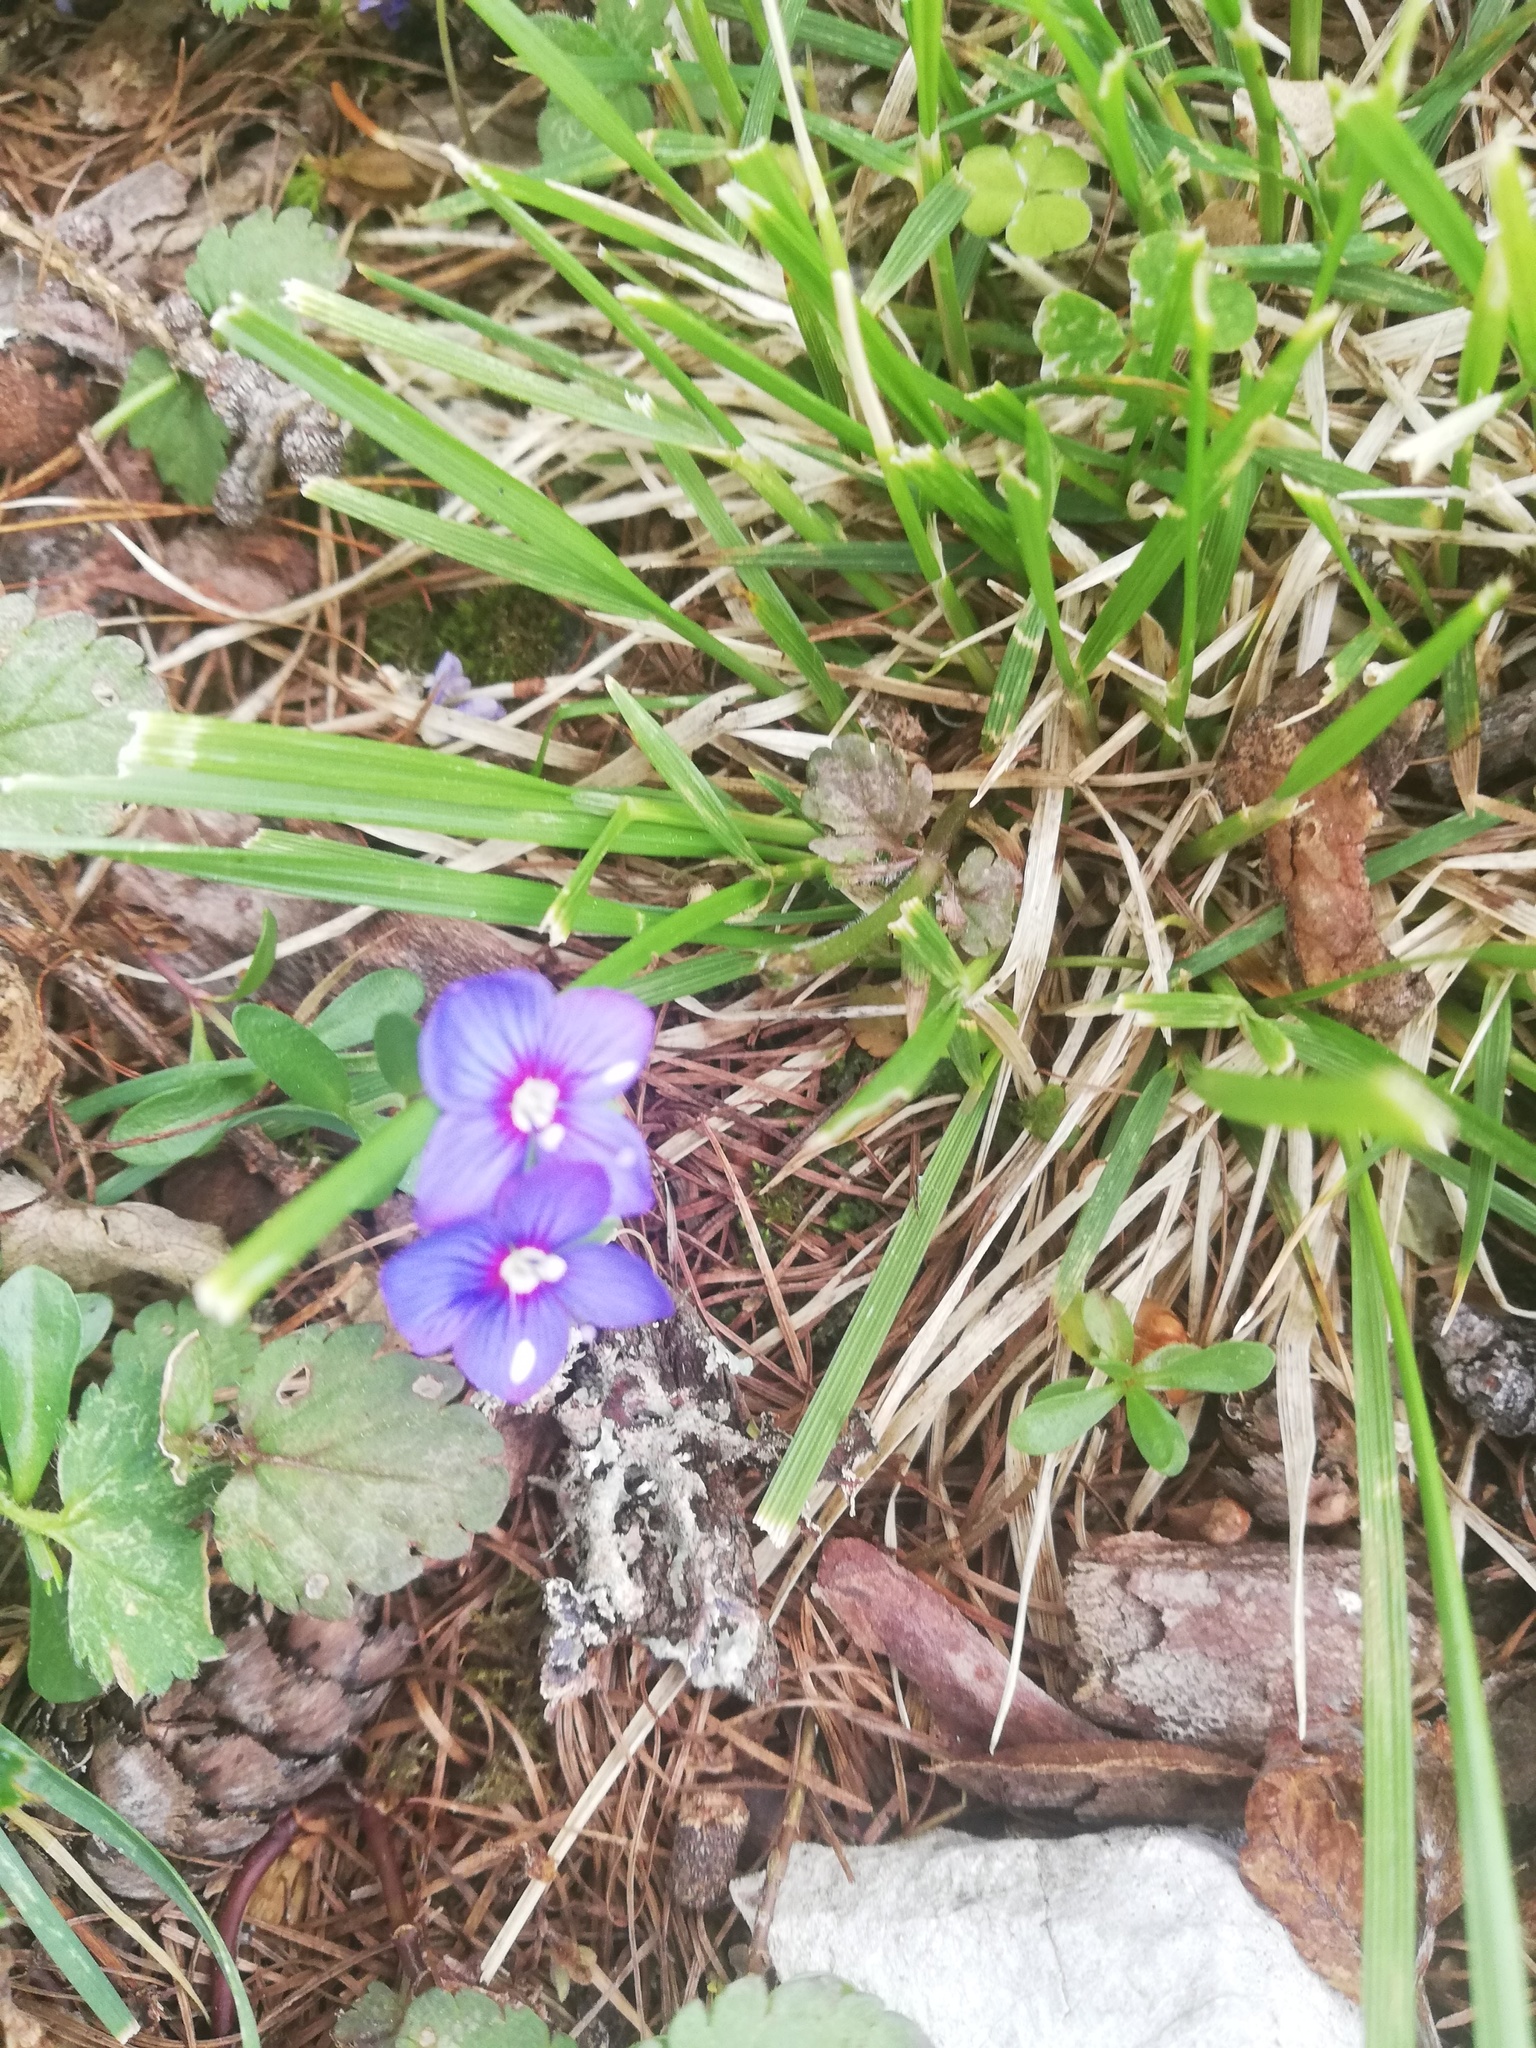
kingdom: Plantae
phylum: Tracheophyta
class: Magnoliopsida
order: Lamiales
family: Plantaginaceae
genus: Veronica
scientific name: Veronica fruticans
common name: Rock speedwell
